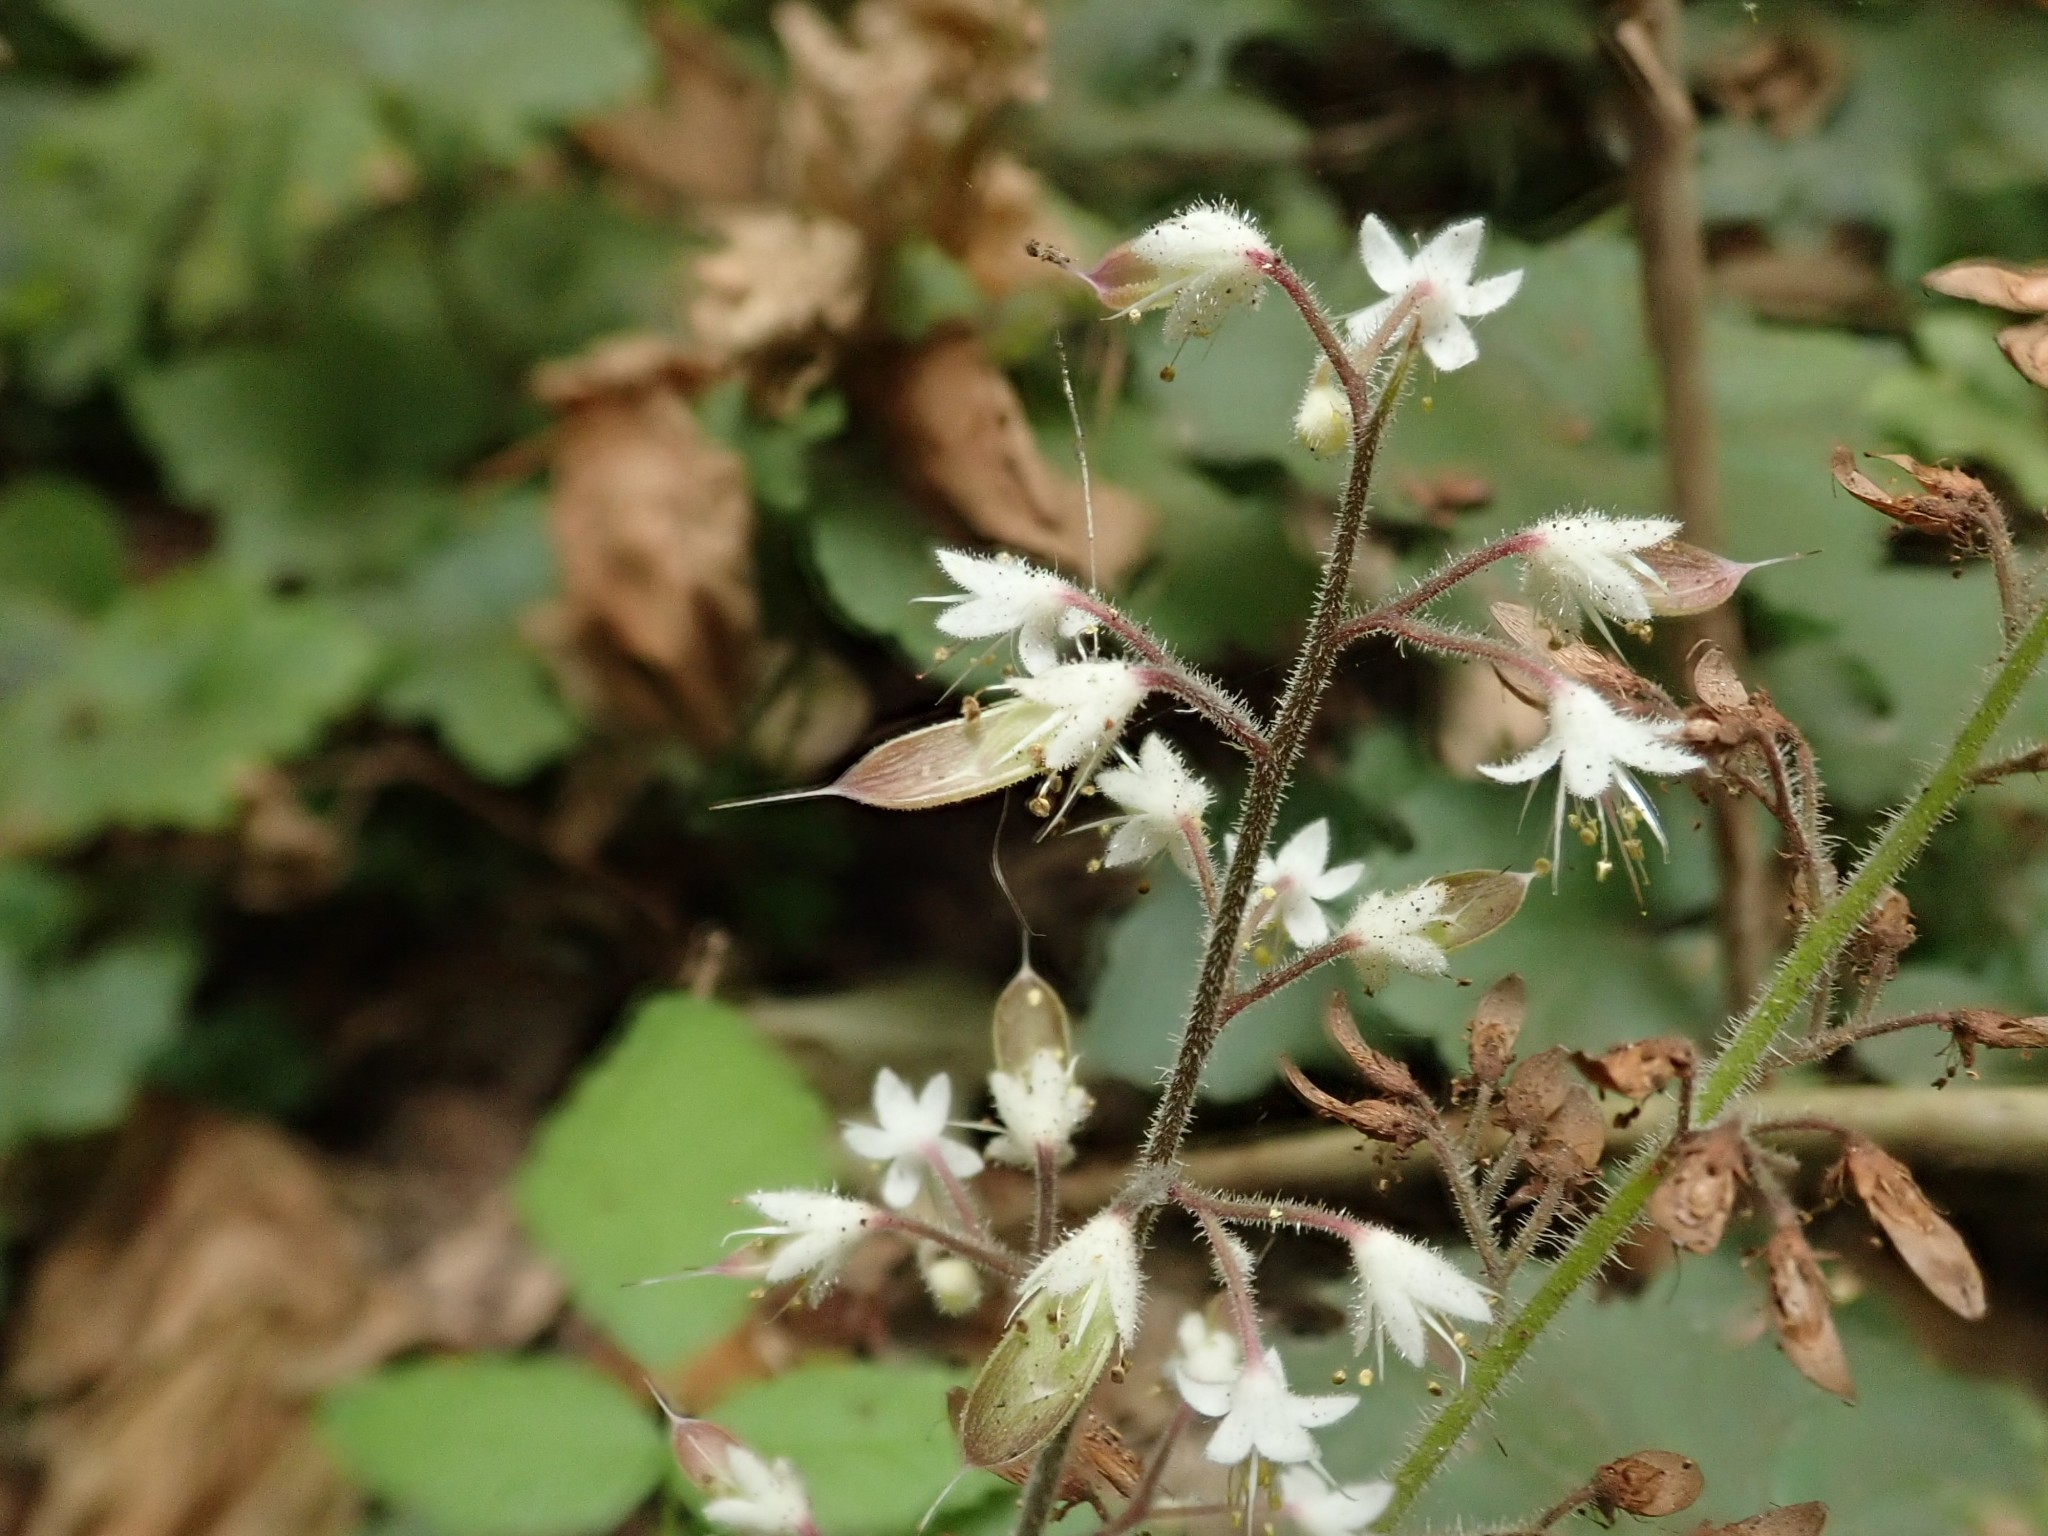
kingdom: Plantae
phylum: Tracheophyta
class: Magnoliopsida
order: Saxifragales
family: Saxifragaceae
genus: Tiarella
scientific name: Tiarella trifoliata
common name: Sugar-scoop
